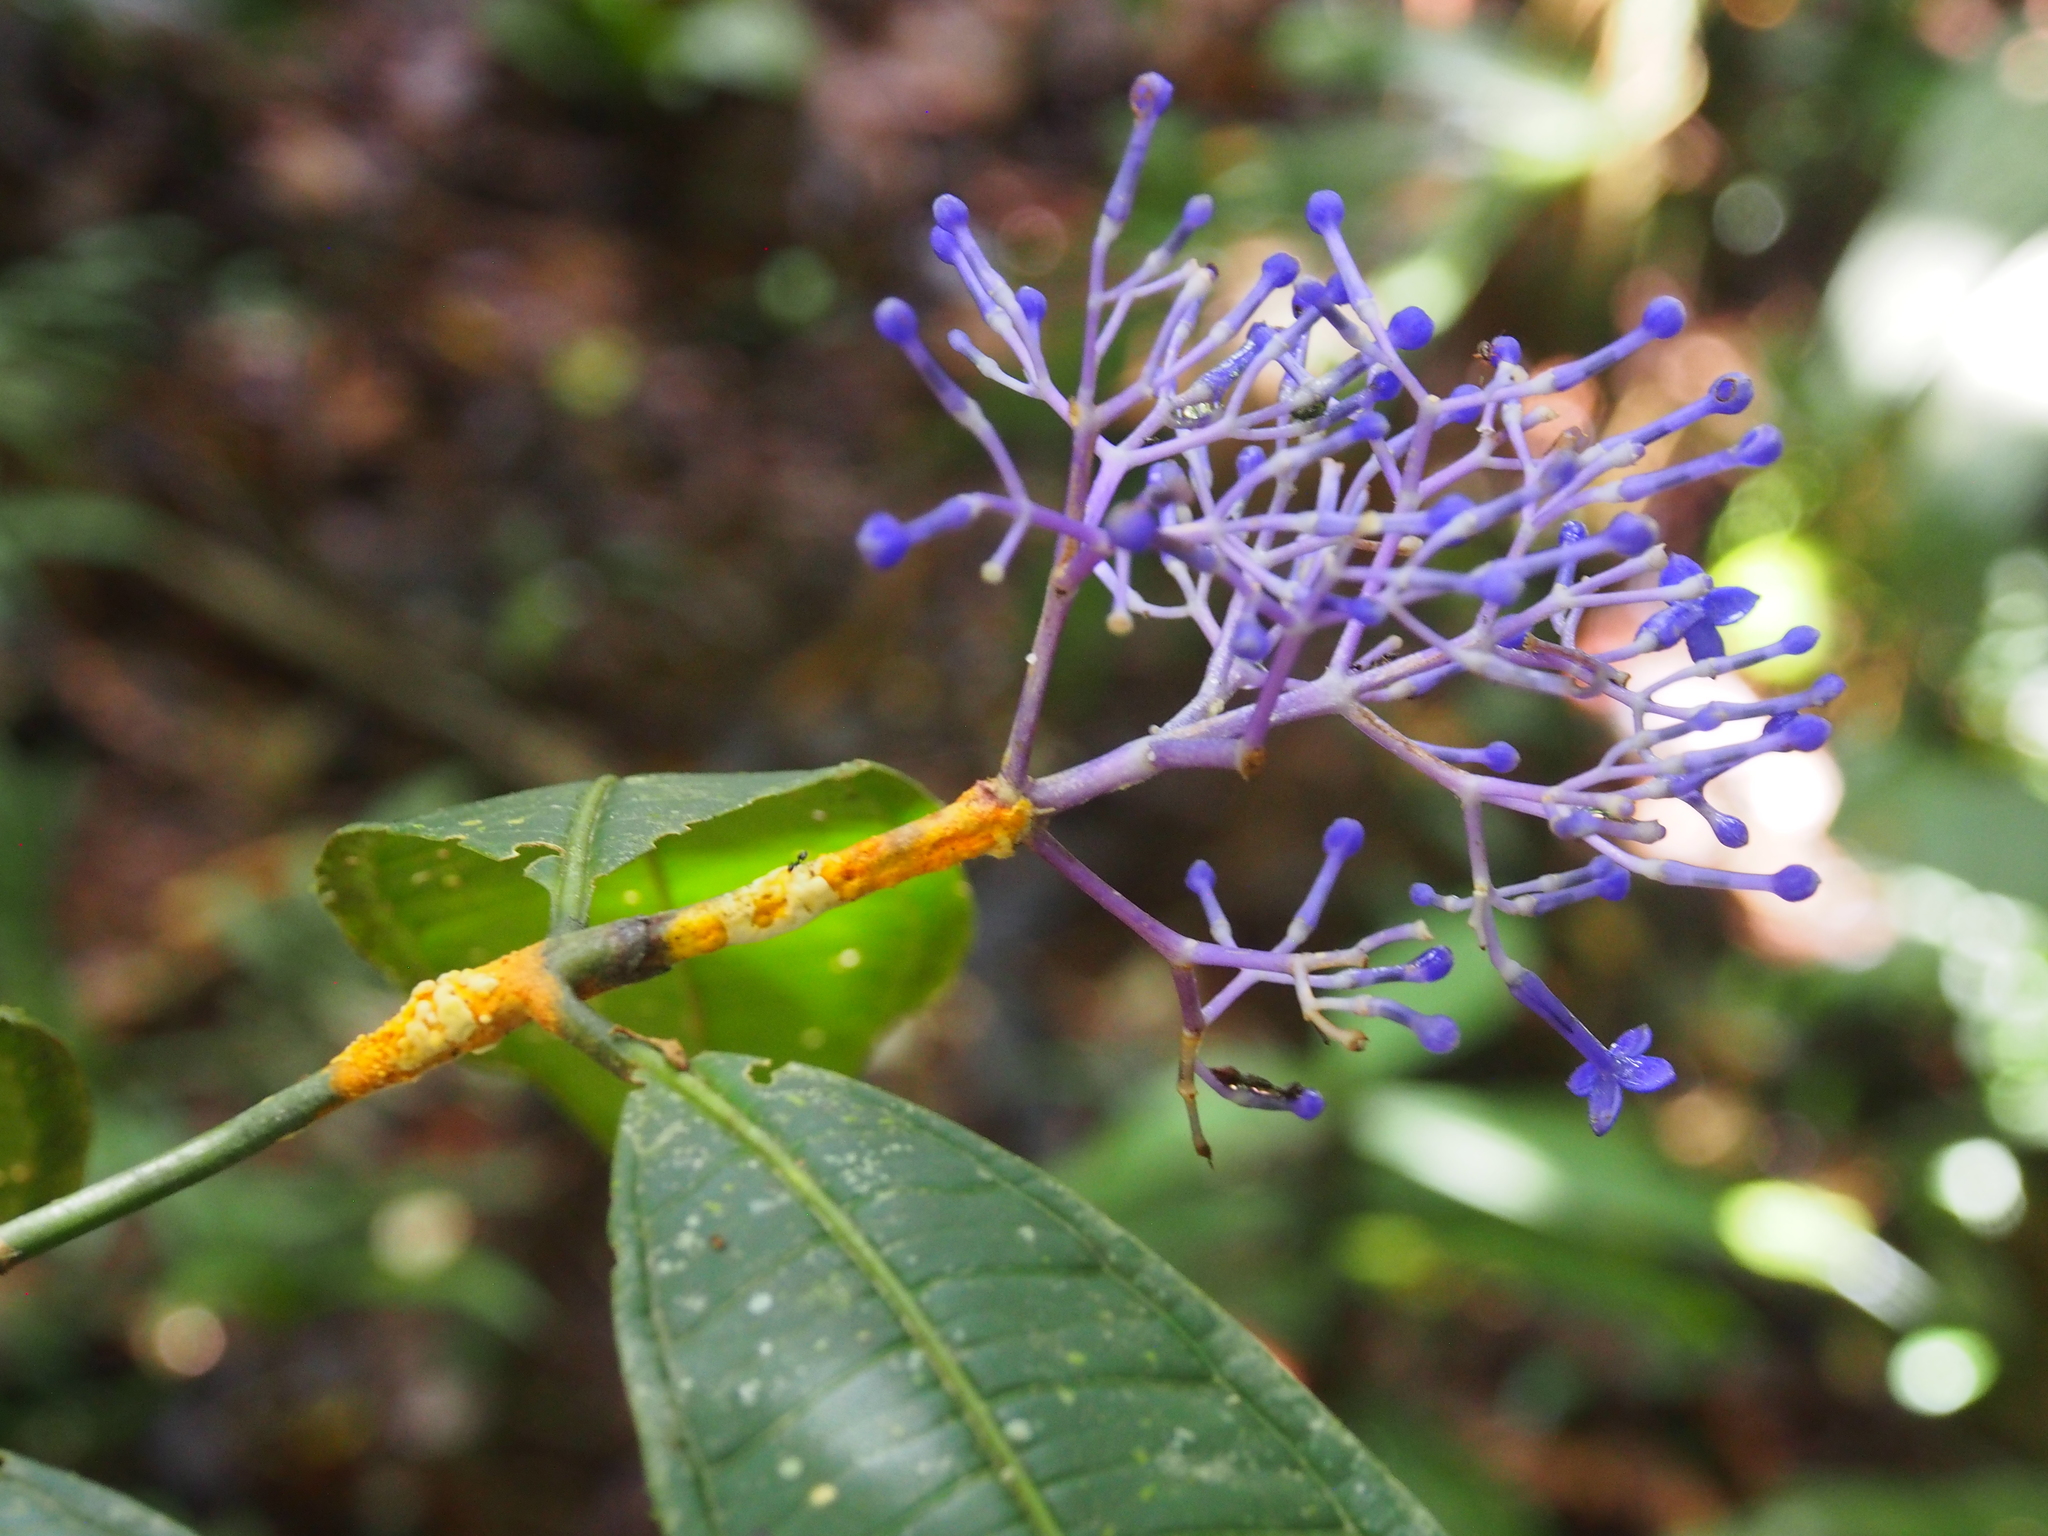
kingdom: Plantae
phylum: Tracheophyta
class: Magnoliopsida
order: Gentianales
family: Rubiaceae
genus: Faramea
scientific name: Faramea suerrensis
